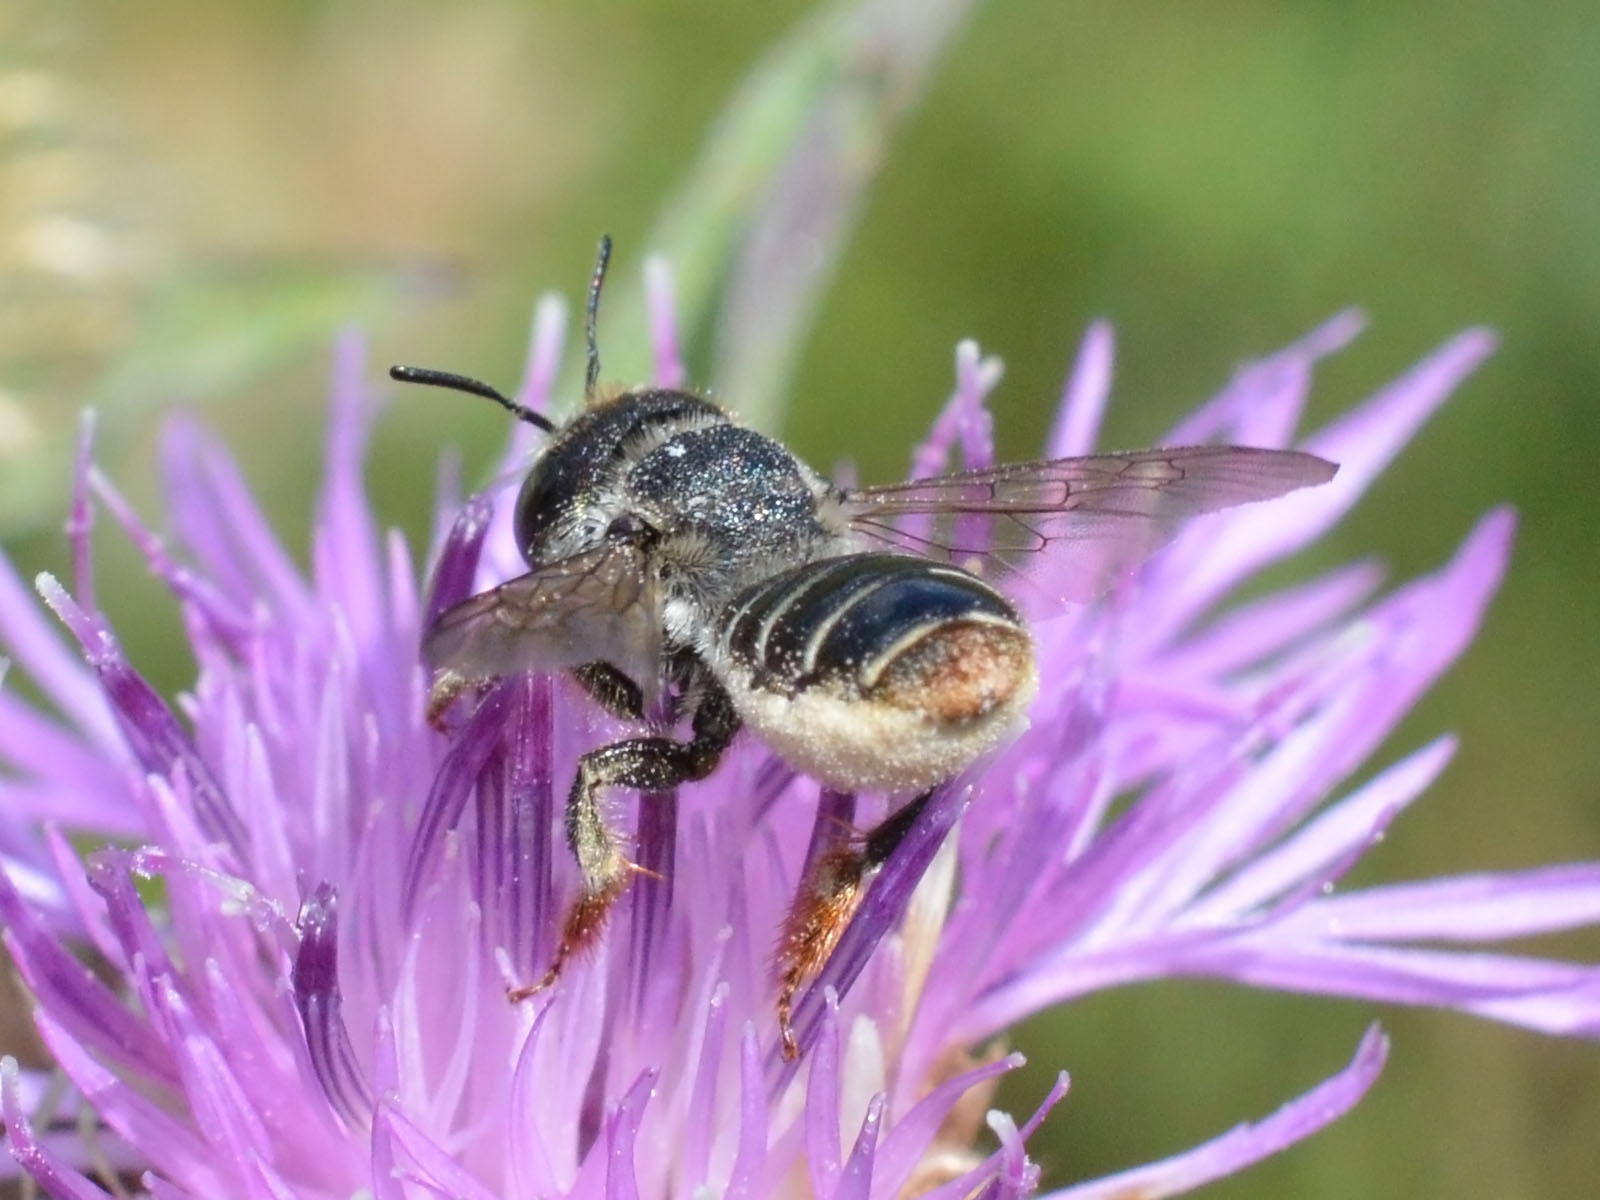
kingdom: Animalia
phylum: Arthropoda
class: Insecta
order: Hymenoptera
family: Megachilidae
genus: Lithurgus
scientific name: Lithurgus chrysurus
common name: Wood-boring bee
